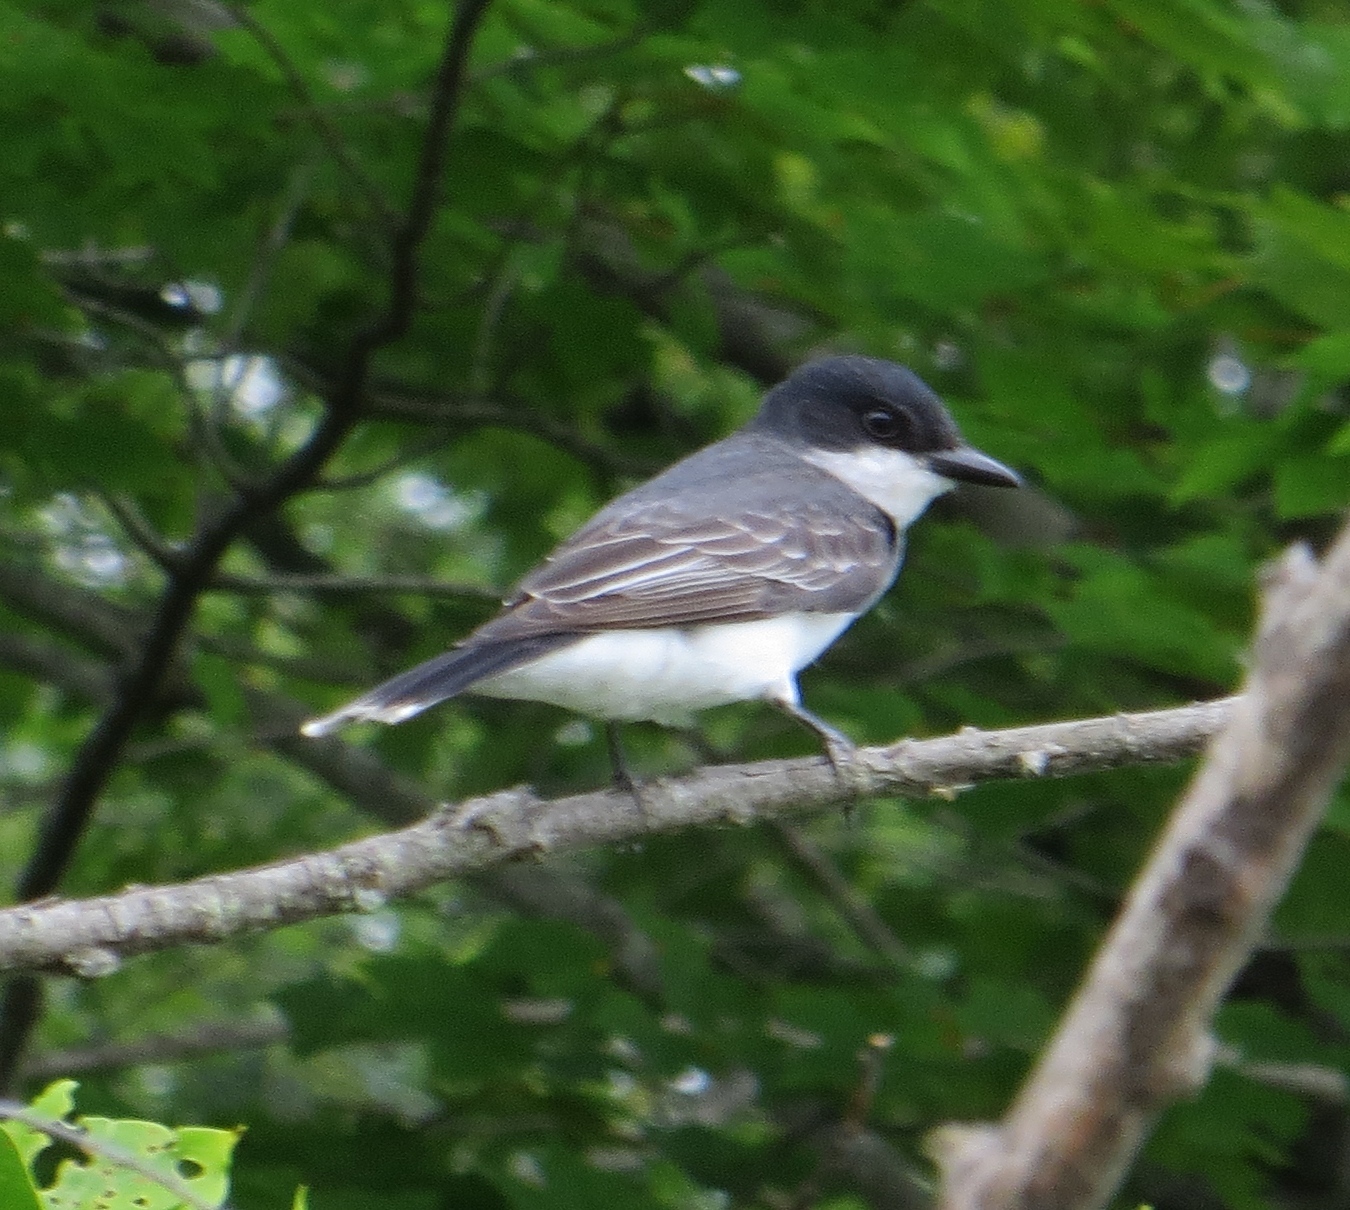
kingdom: Animalia
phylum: Chordata
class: Aves
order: Passeriformes
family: Tyrannidae
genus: Tyrannus
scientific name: Tyrannus tyrannus
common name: Eastern kingbird
